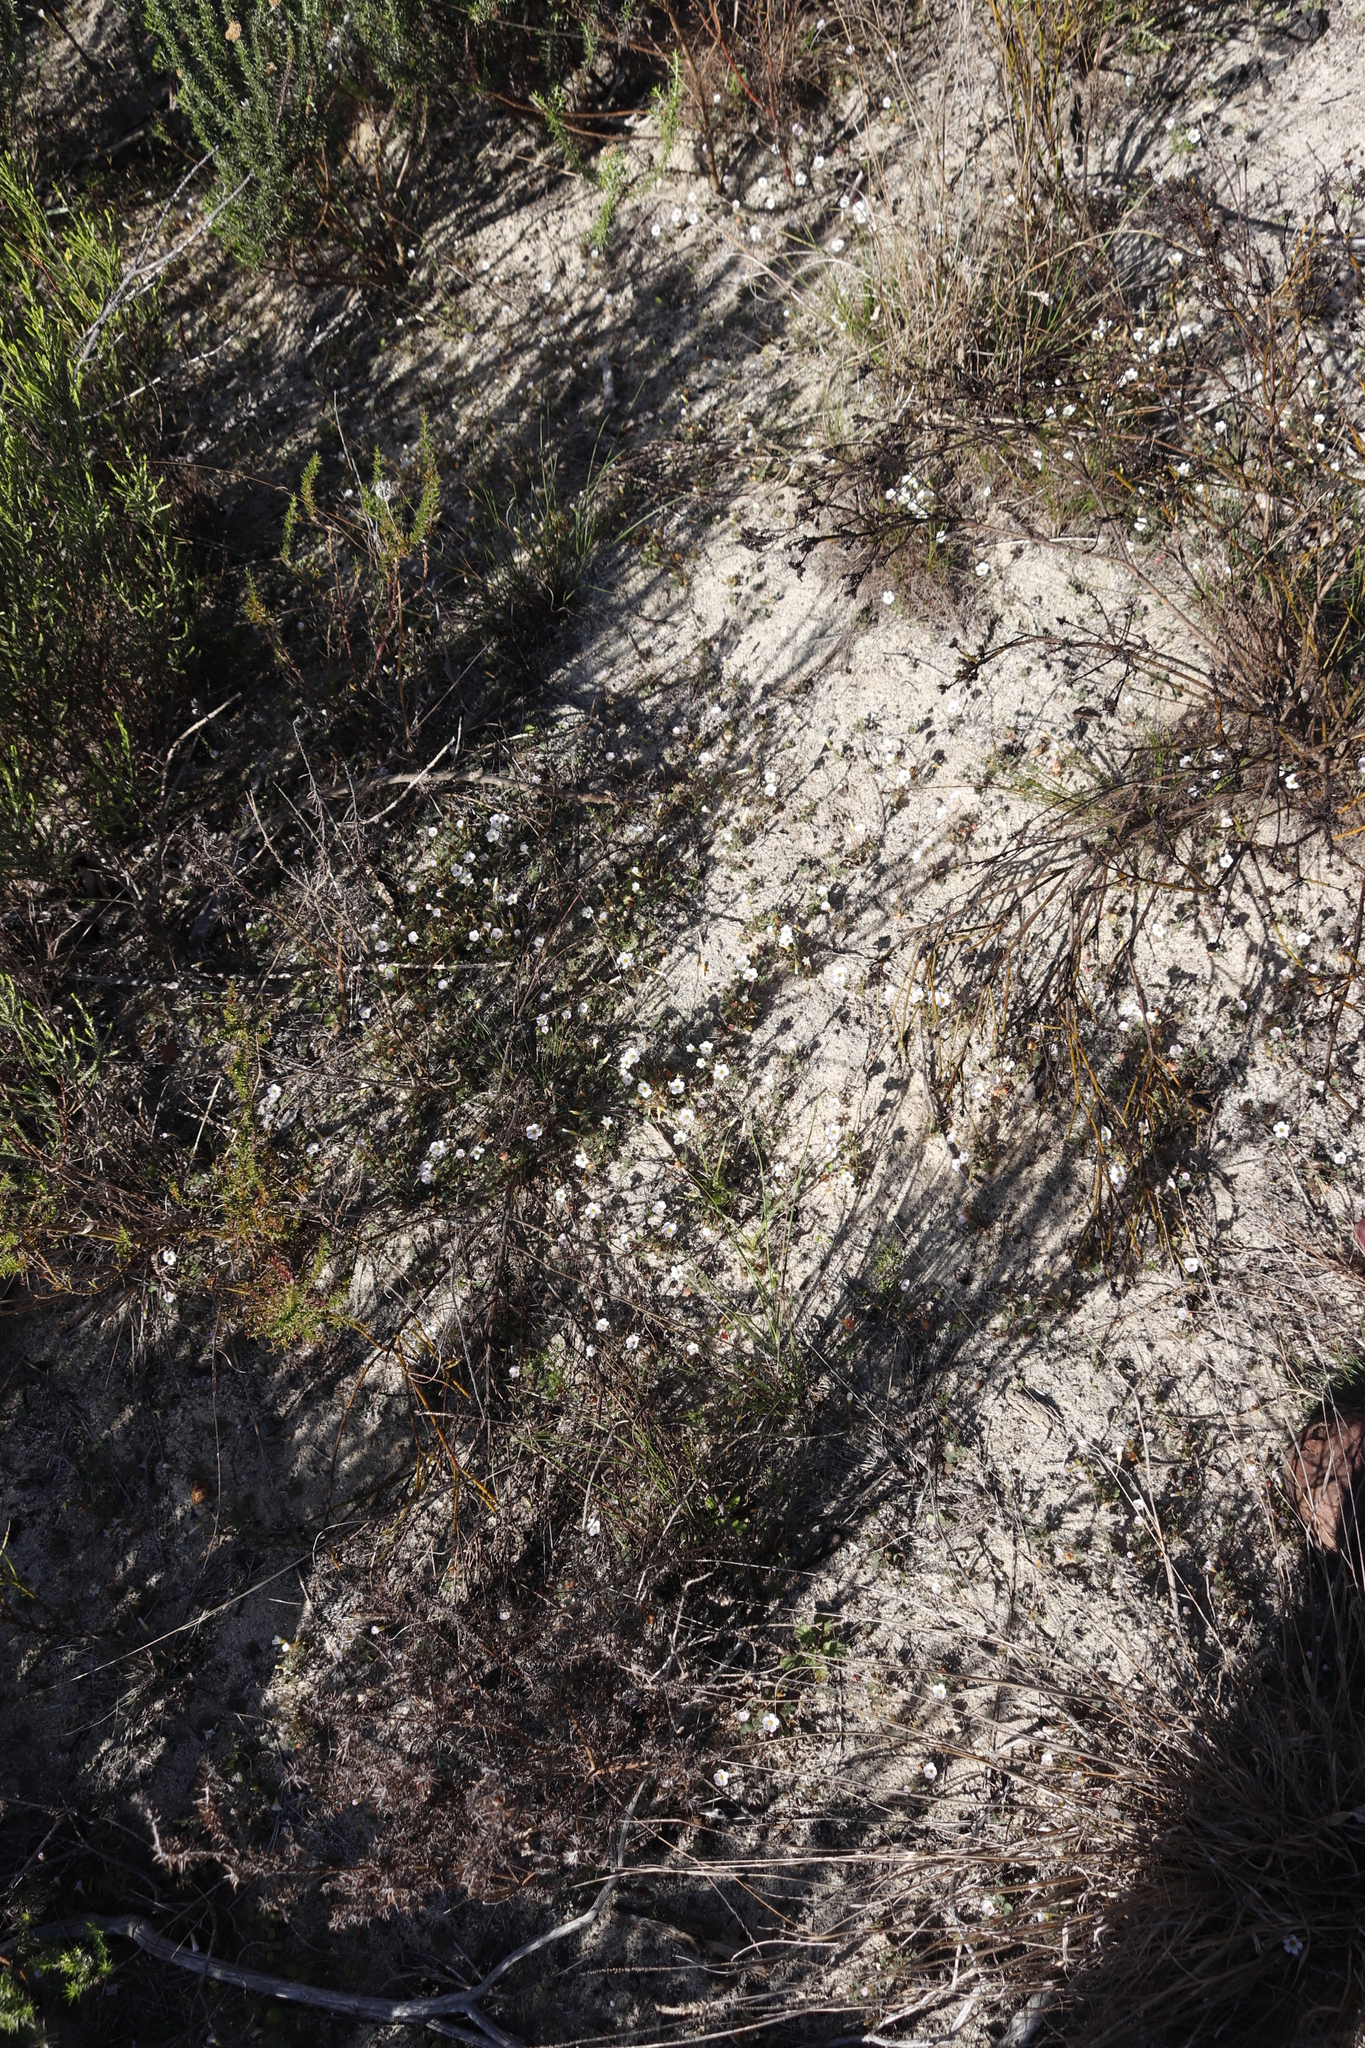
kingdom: Plantae
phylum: Tracheophyta
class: Magnoliopsida
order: Oxalidales
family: Oxalidaceae
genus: Oxalis
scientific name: Oxalis punctata
